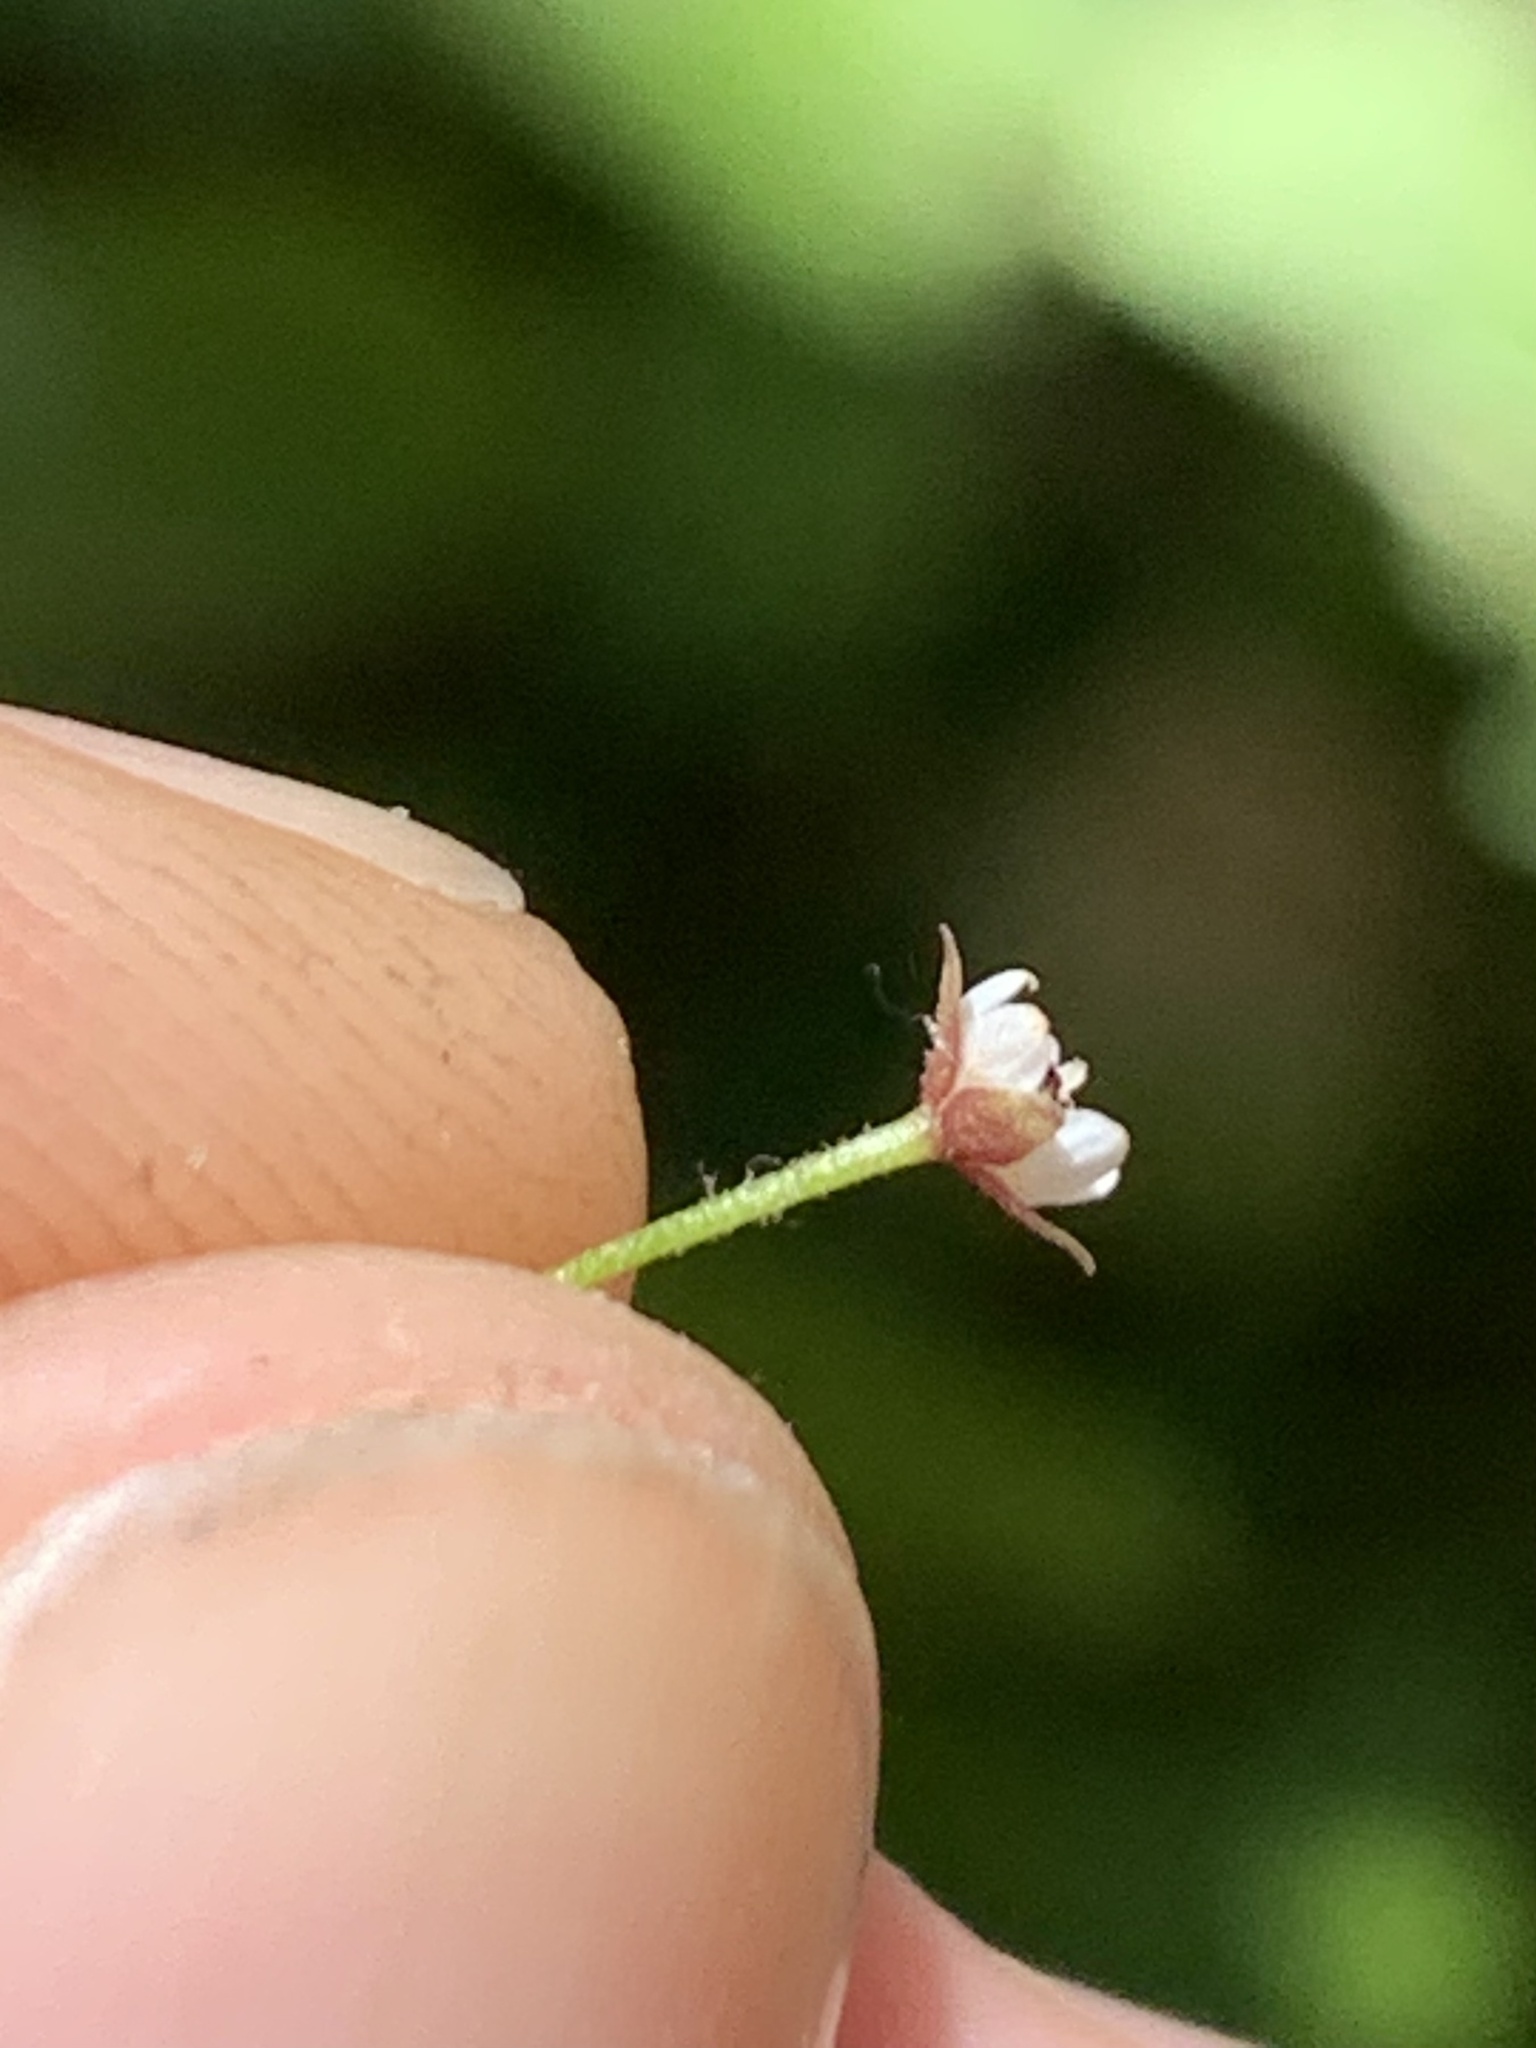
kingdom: Plantae
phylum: Tracheophyta
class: Magnoliopsida
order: Saxifragales
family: Saxifragaceae
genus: Micranthes
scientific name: Micranthes odontoloma
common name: Brook saxifrage
